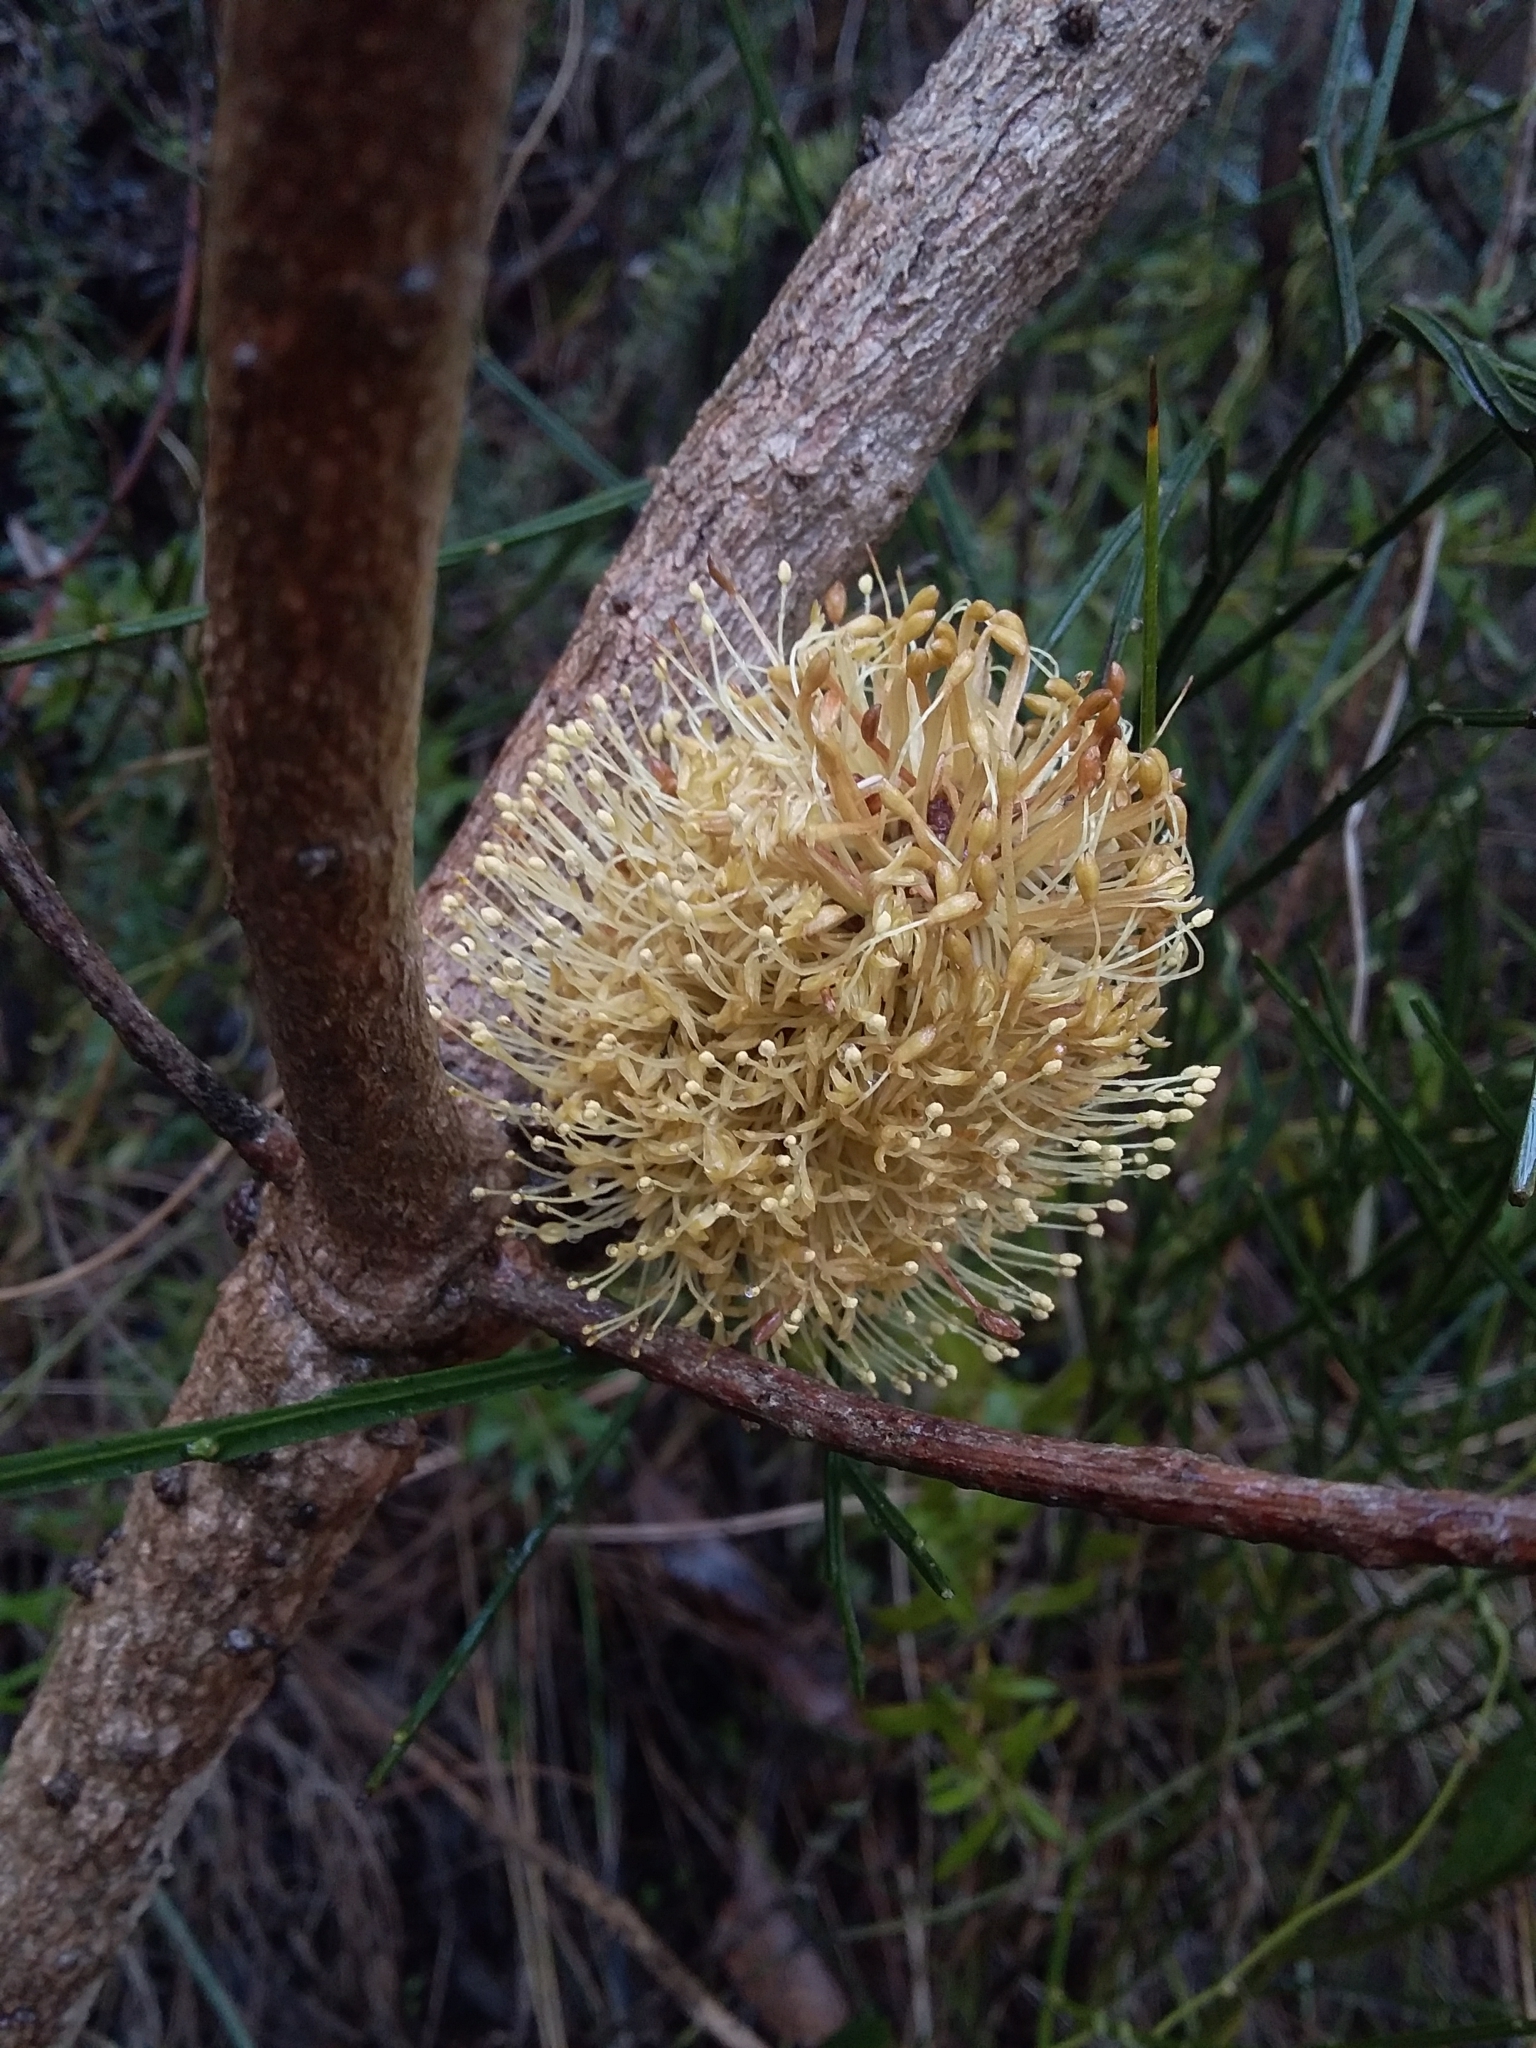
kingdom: Plantae
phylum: Tracheophyta
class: Magnoliopsida
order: Proteales
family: Proteaceae
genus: Banksia
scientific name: Banksia marginata
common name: Silver banksia
